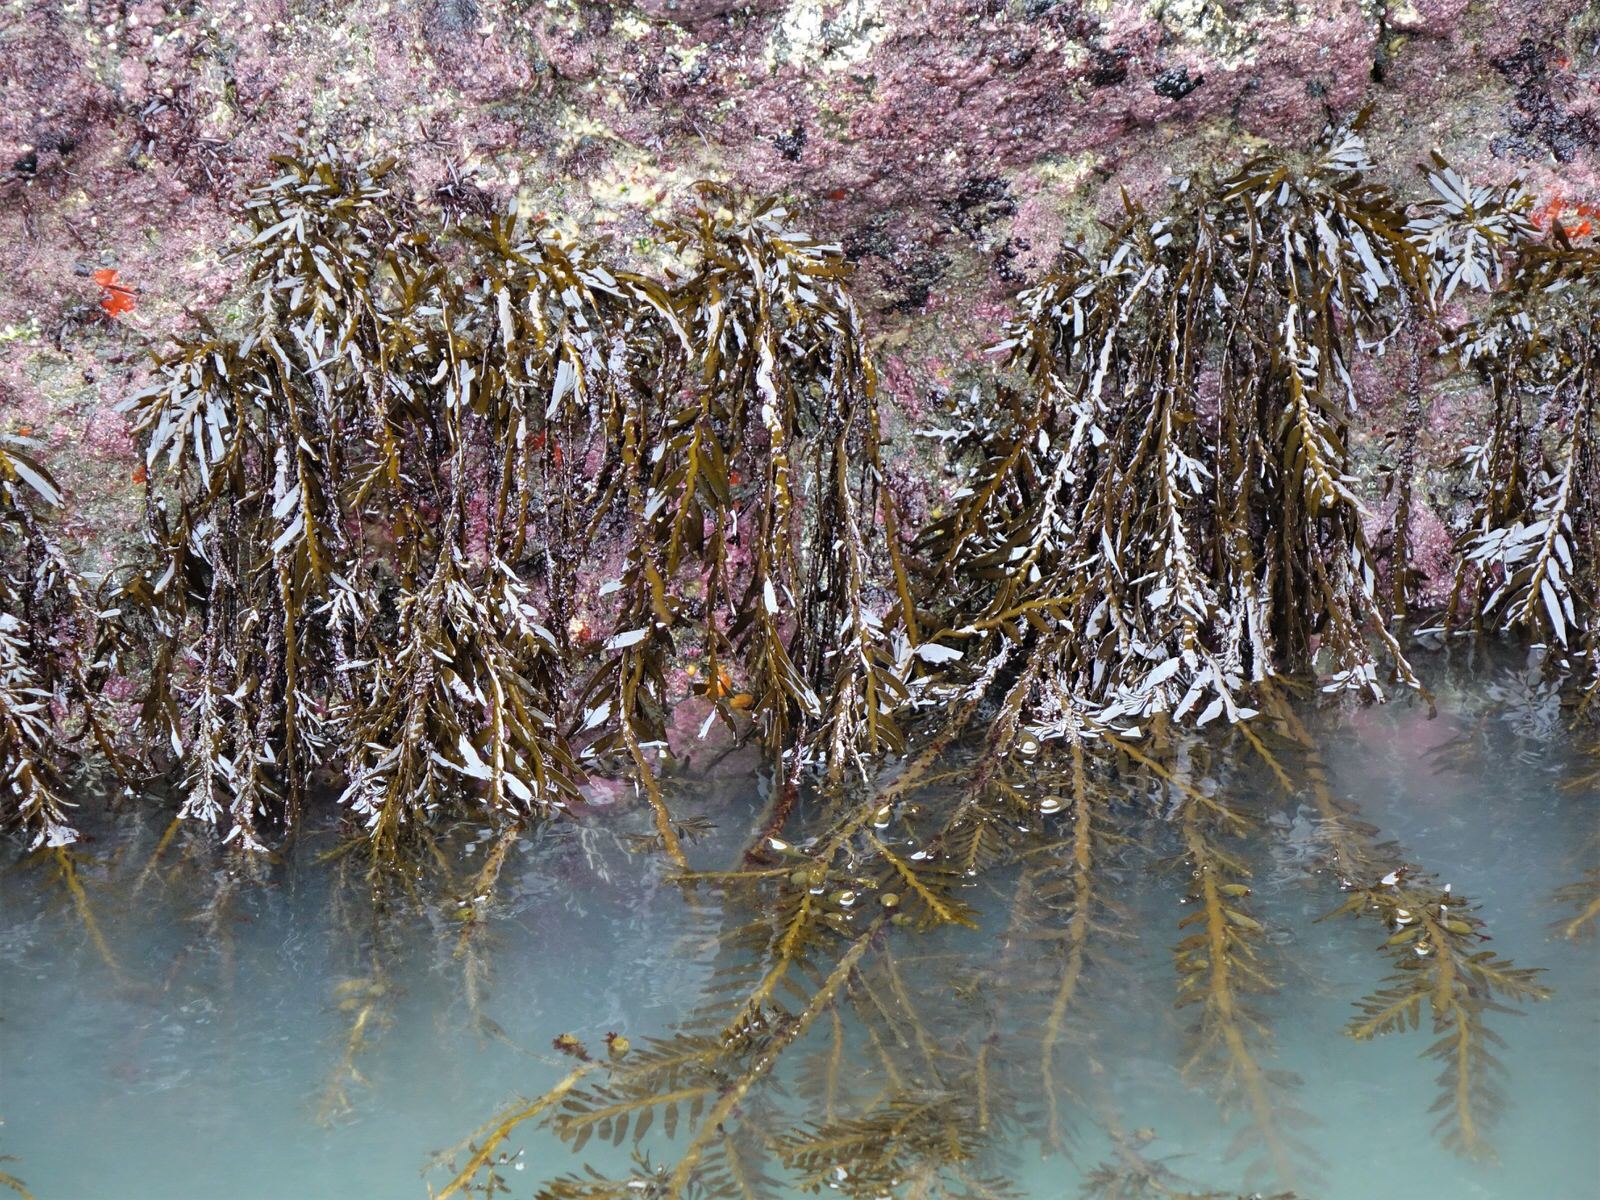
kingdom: Chromista
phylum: Ochrophyta
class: Phaeophyceae
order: Fucales
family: Sargassaceae
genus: Carpophyllum
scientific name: Carpophyllum maschalocarpum
